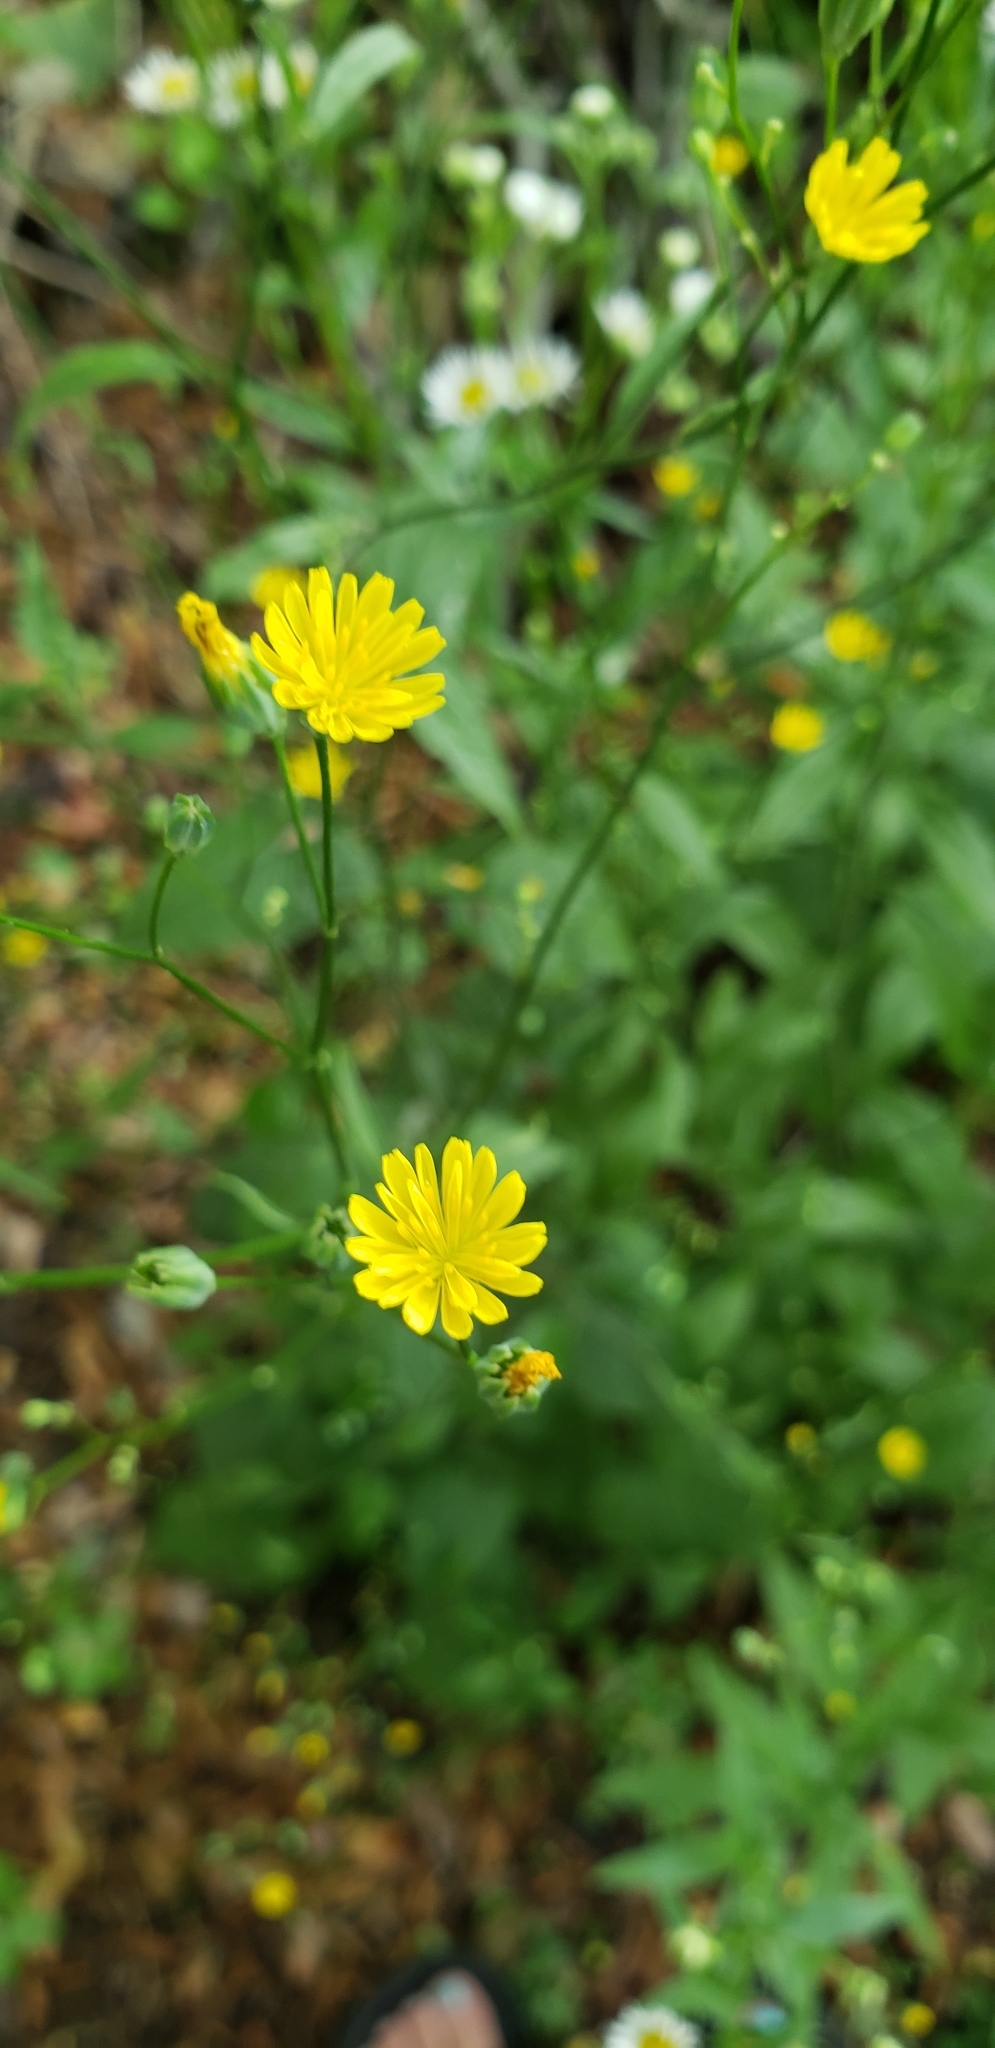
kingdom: Plantae
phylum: Tracheophyta
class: Magnoliopsida
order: Asterales
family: Asteraceae
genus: Lapsana
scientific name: Lapsana communis
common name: Nipplewort
